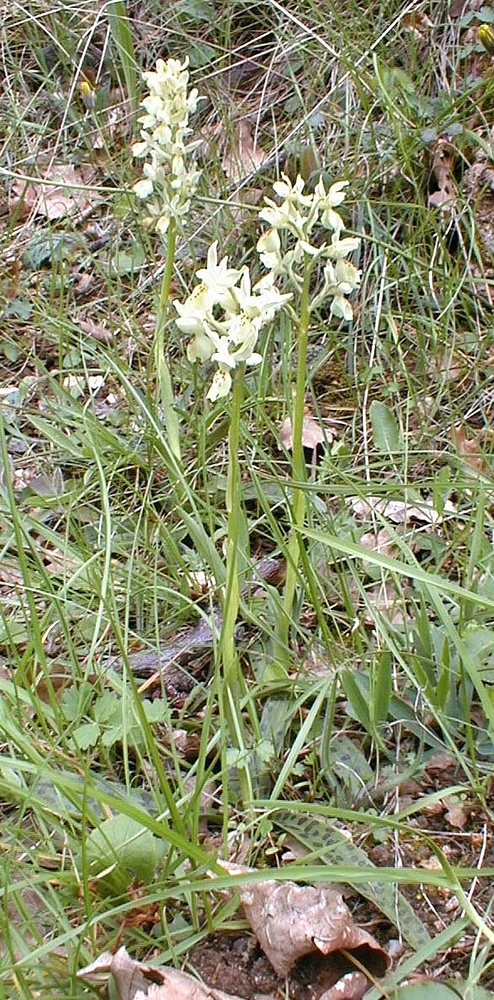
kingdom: Plantae
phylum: Tracheophyta
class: Liliopsida
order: Asparagales
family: Orchidaceae
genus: Orchis
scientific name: Orchis provincialis
